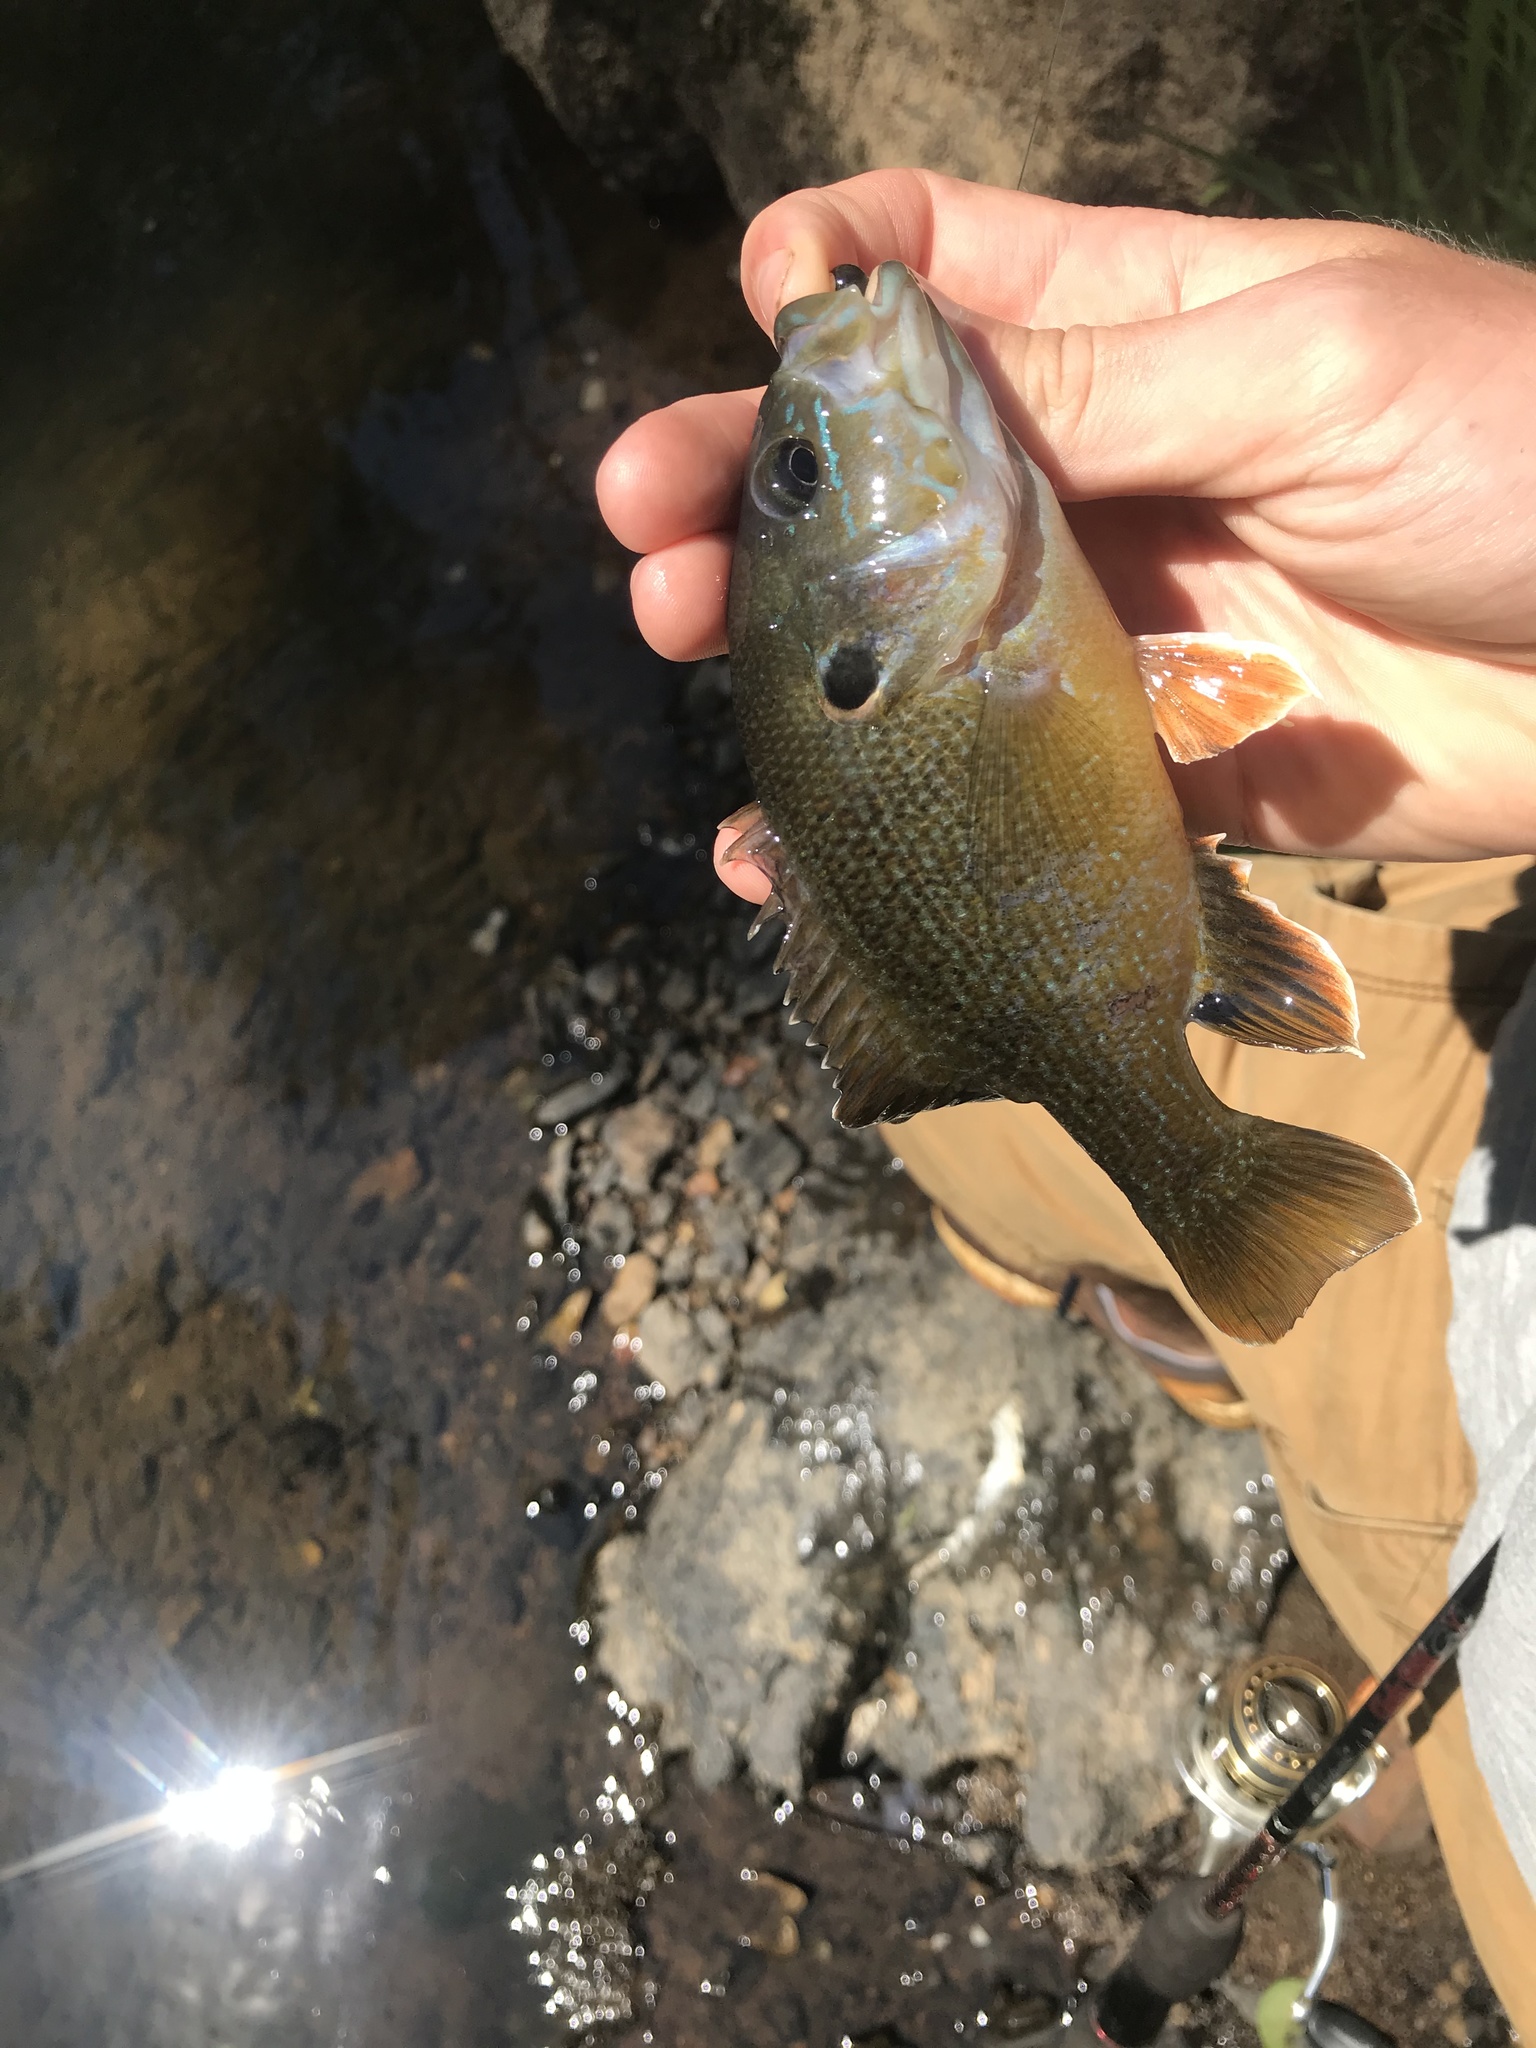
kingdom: Animalia
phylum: Chordata
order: Perciformes
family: Centrarchidae
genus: Lepomis
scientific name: Lepomis cyanellus
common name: Green sunfish
